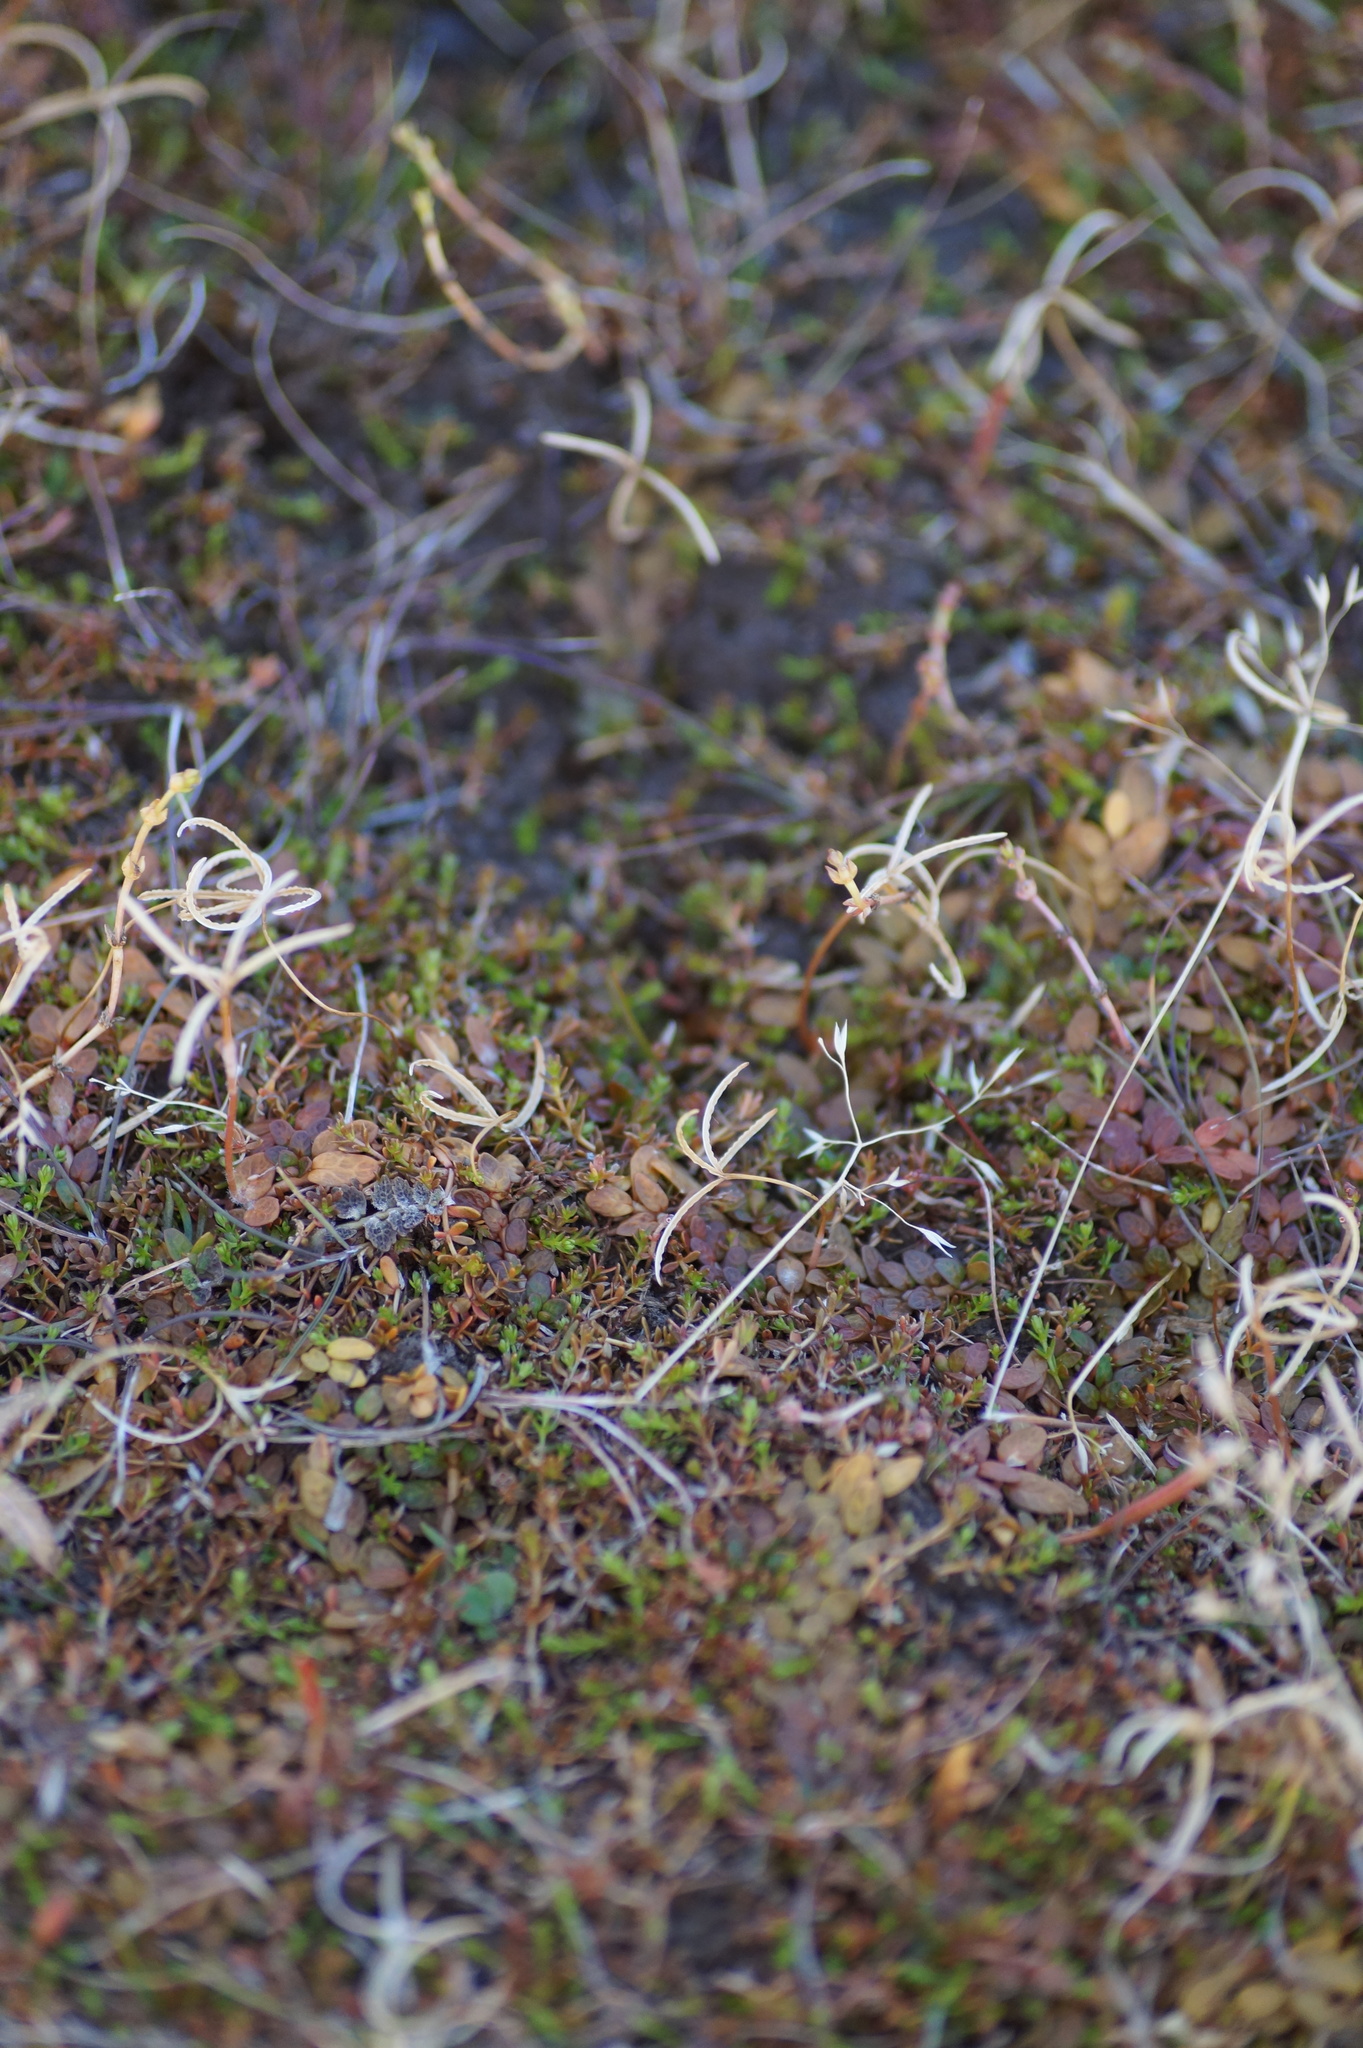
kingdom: Plantae
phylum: Tracheophyta
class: Magnoliopsida
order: Myrtales
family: Onagraceae
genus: Epilobium
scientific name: Epilobium angustum
